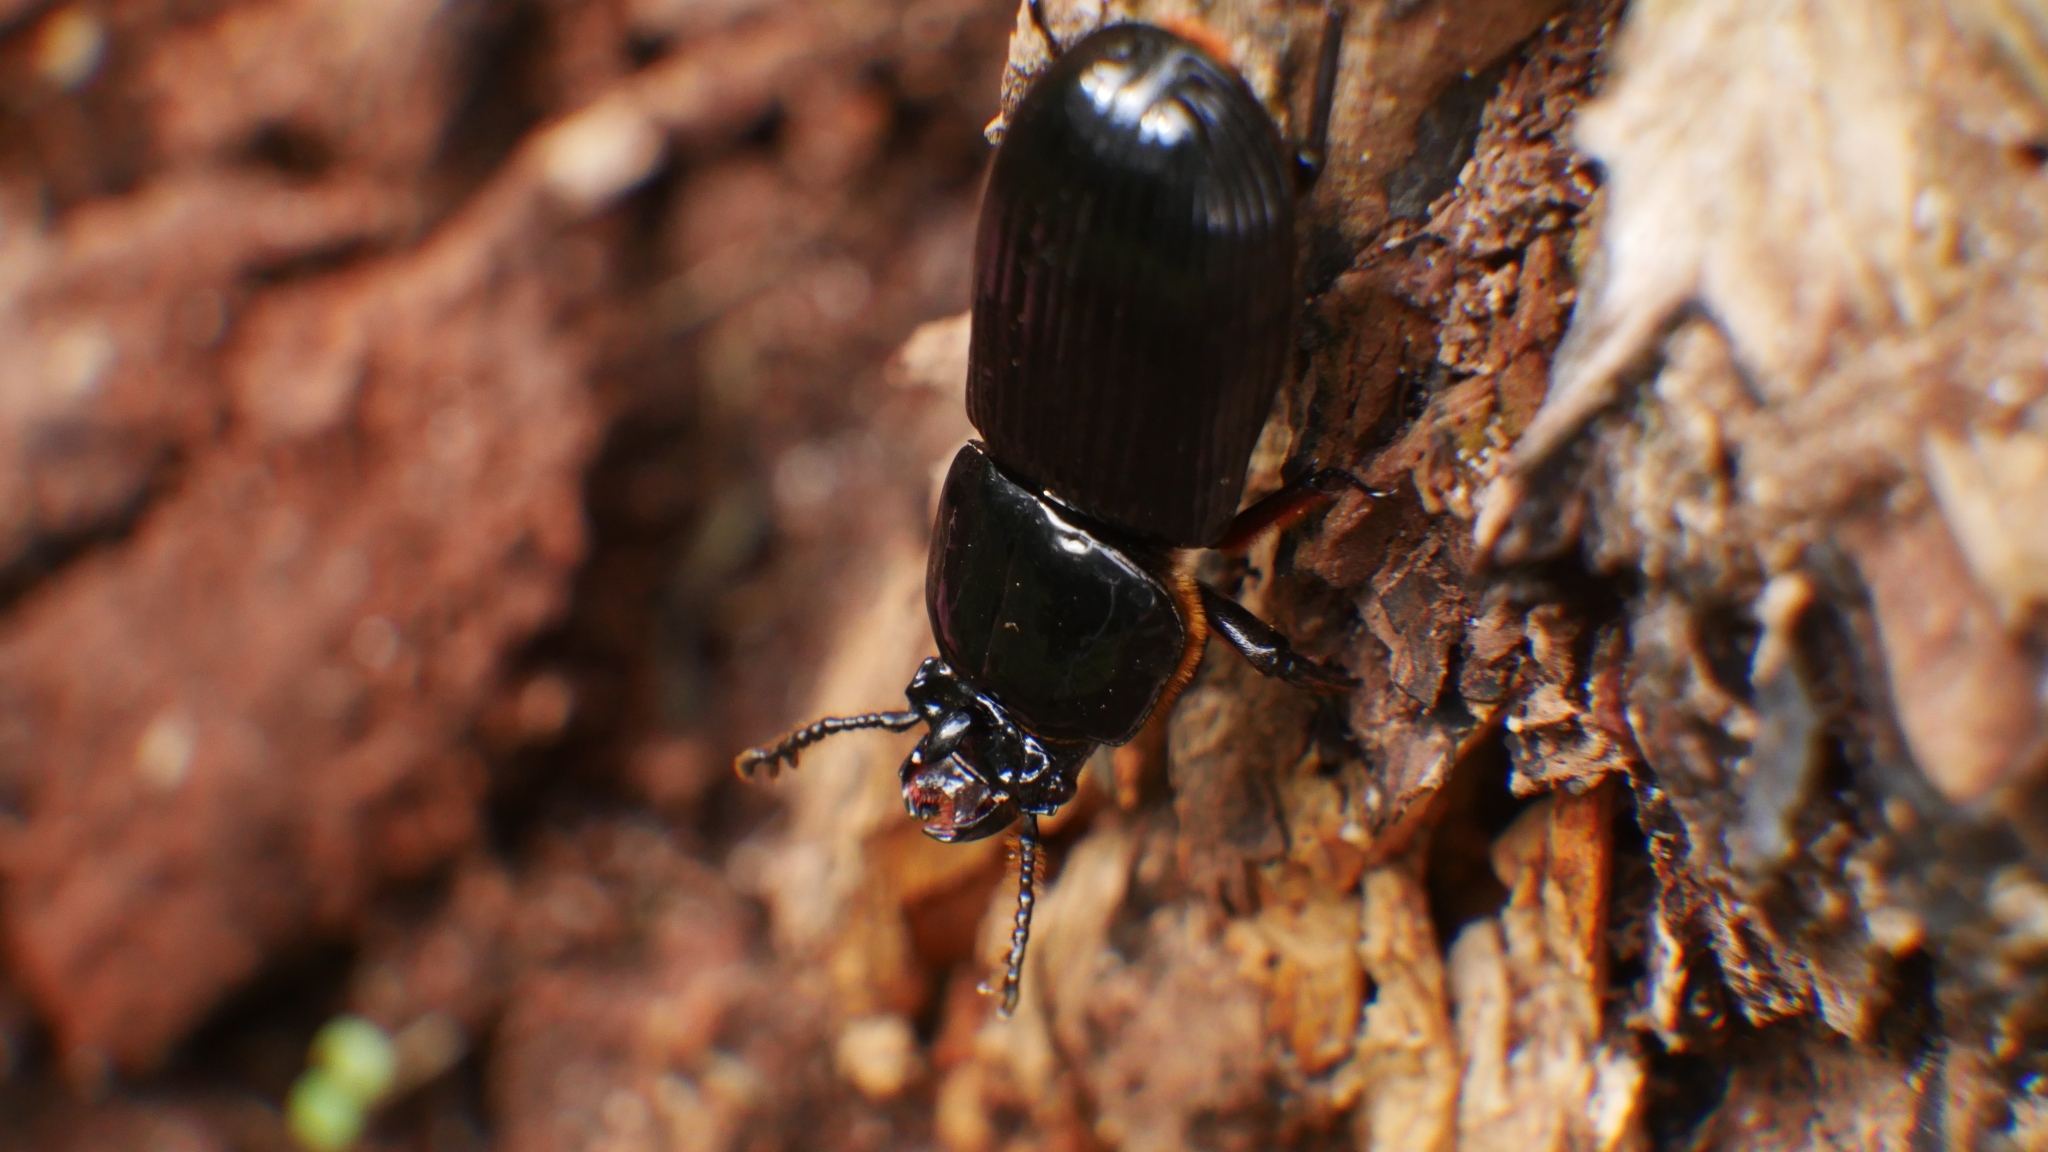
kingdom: Animalia
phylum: Arthropoda
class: Insecta
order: Coleoptera
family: Passalidae
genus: Odontotaenius
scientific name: Odontotaenius disjunctus
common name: Patent leather beetle
